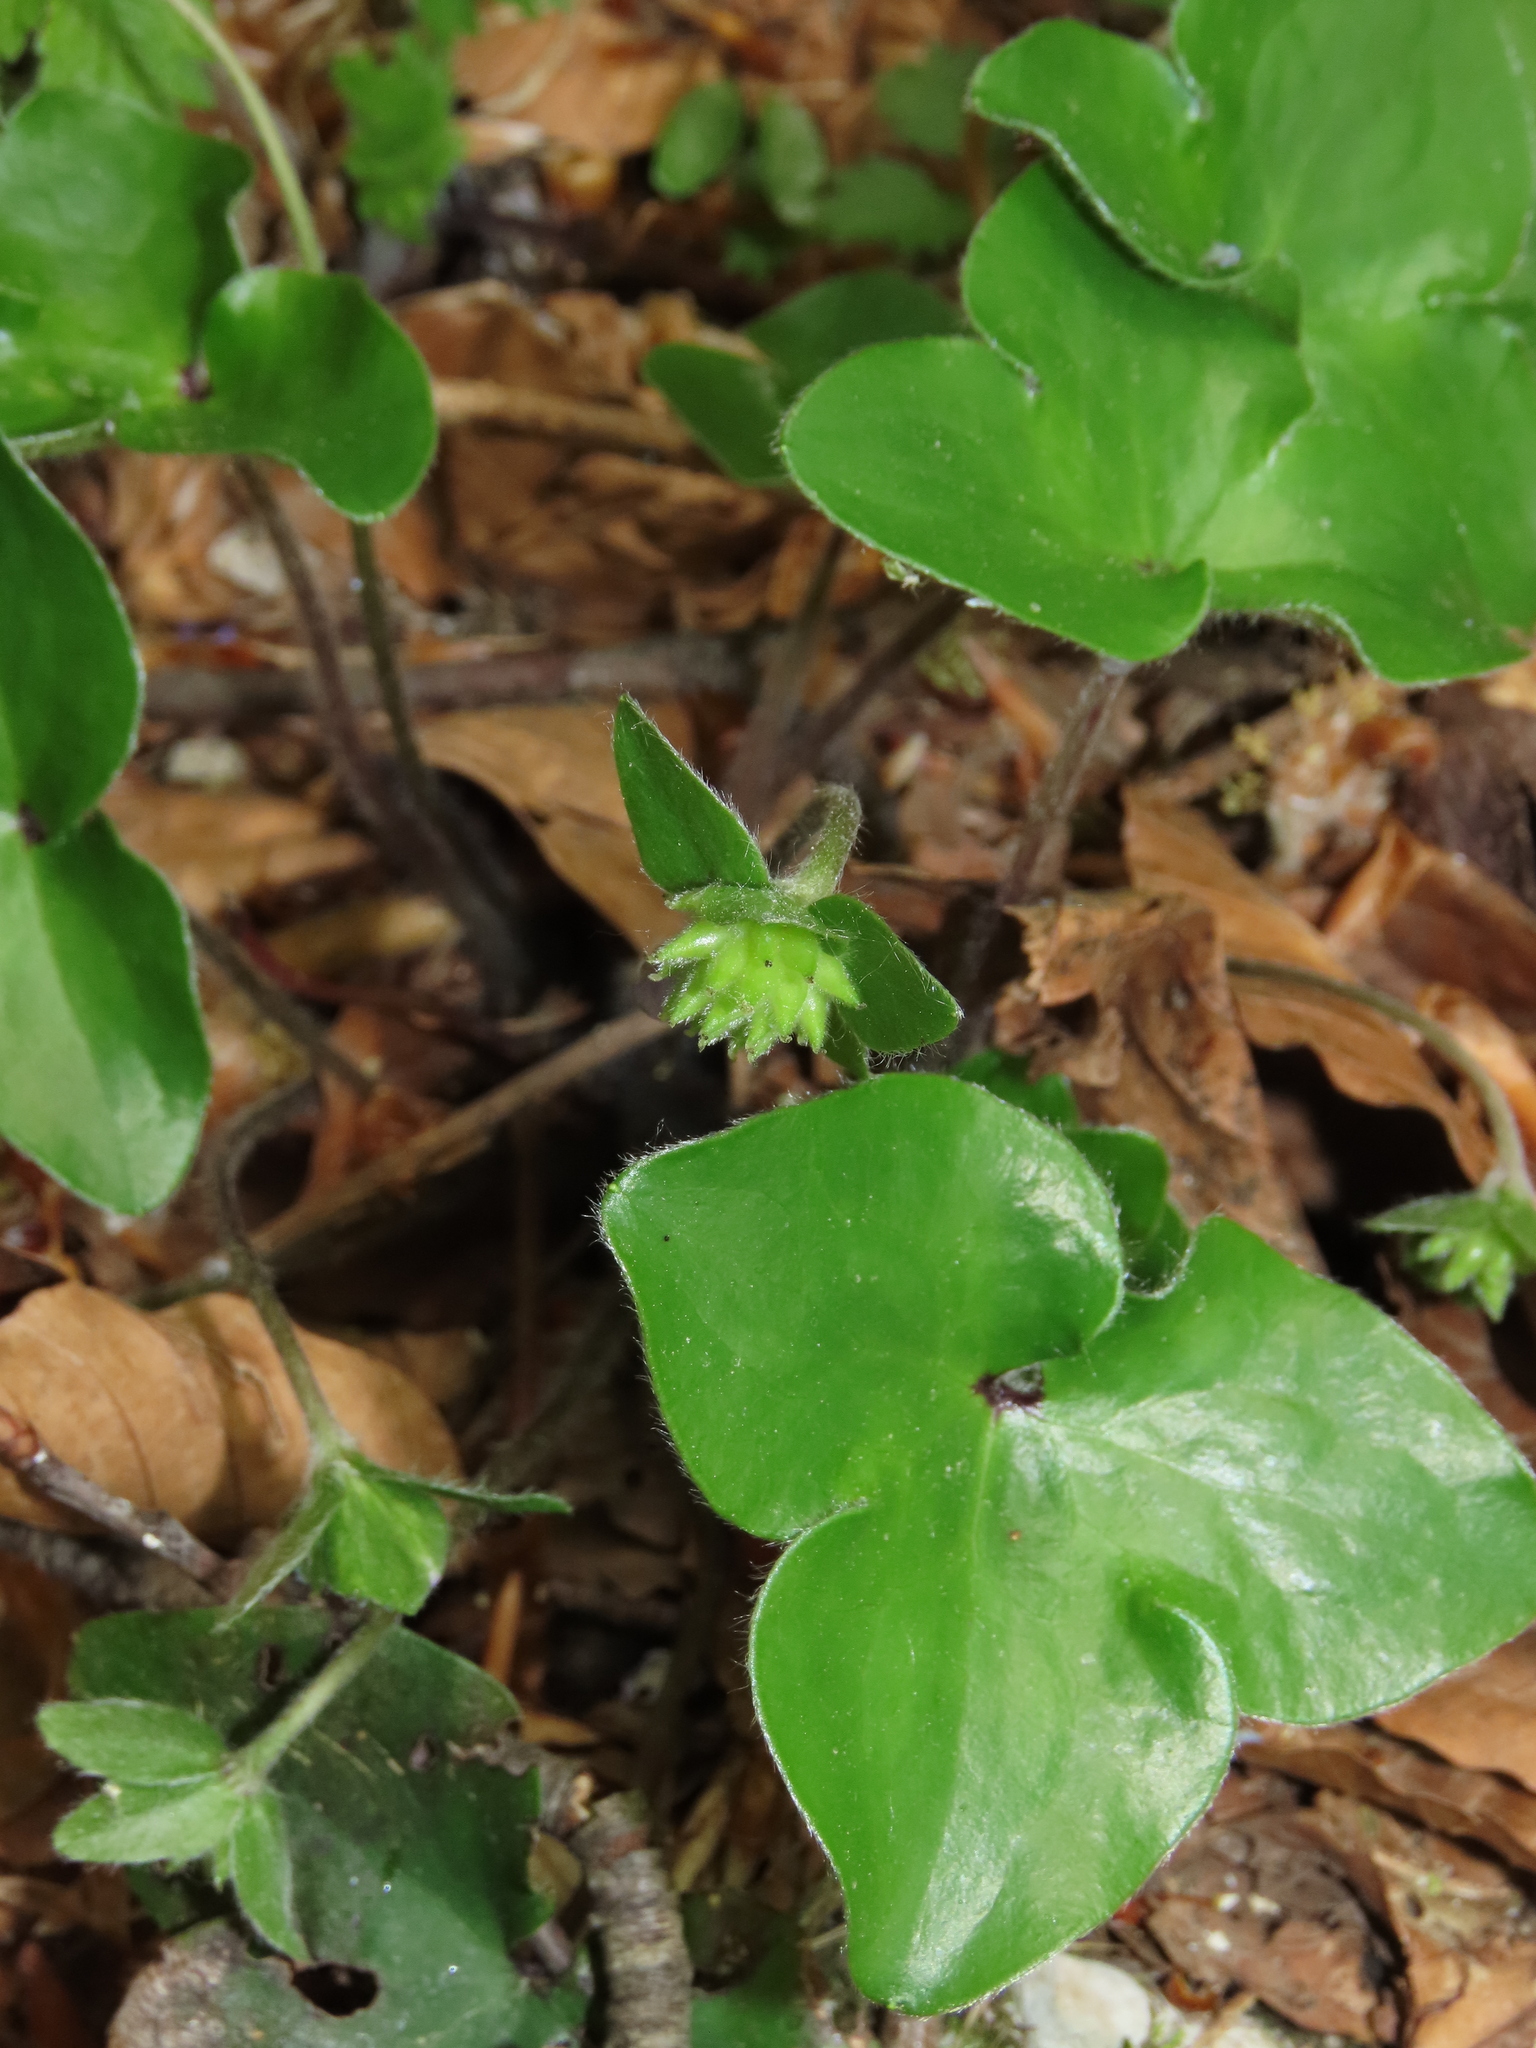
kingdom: Plantae
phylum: Tracheophyta
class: Magnoliopsida
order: Ranunculales
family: Ranunculaceae
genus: Hepatica
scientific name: Hepatica nobilis
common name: Liverleaf
